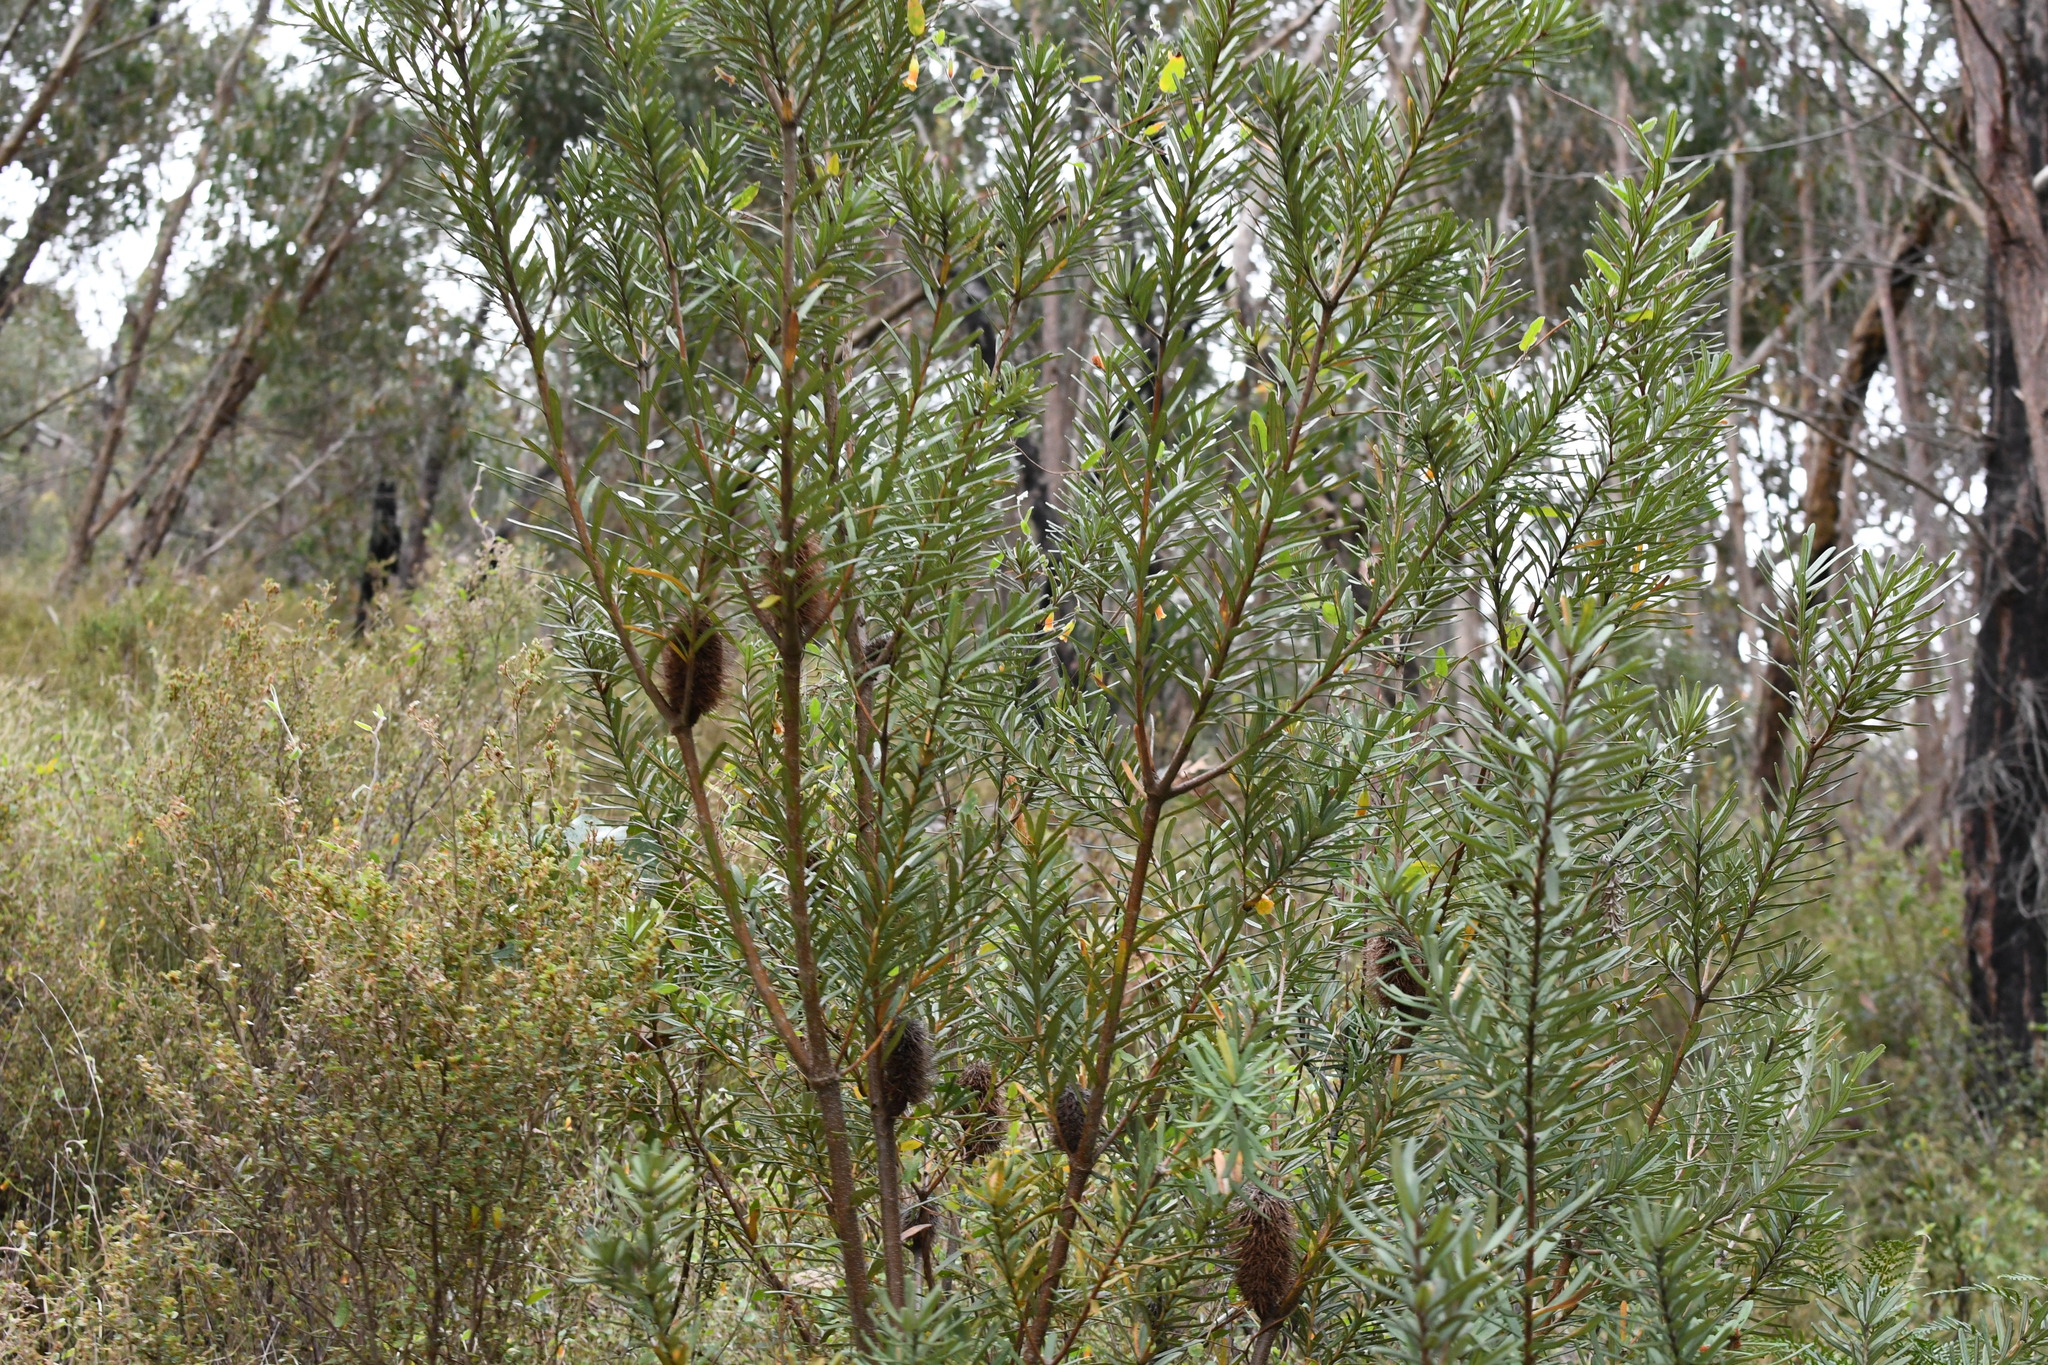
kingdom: Plantae
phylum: Tracheophyta
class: Magnoliopsida
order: Proteales
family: Proteaceae
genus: Banksia
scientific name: Banksia marginata
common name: Silver banksia
